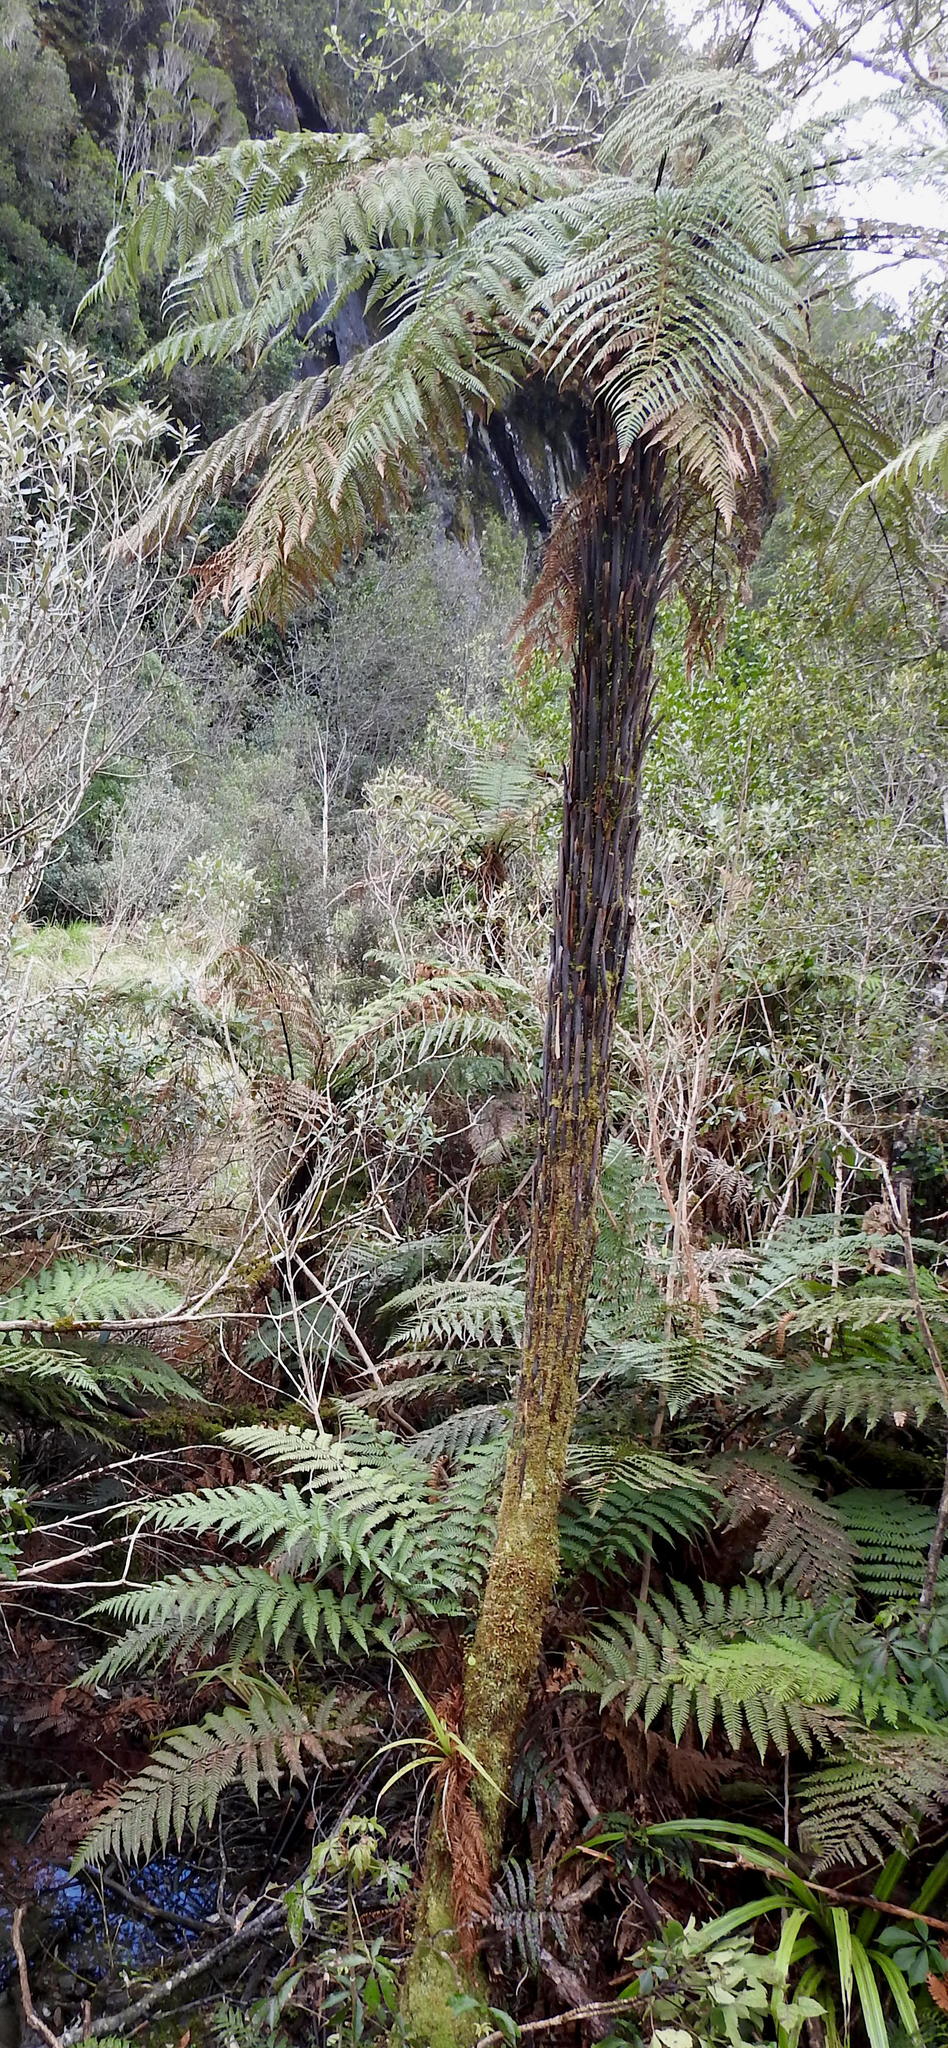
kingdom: Plantae
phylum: Tracheophyta
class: Polypodiopsida
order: Cyatheales
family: Dicksoniaceae
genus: Dicksonia
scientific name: Dicksonia squarrosa
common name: Hard treefern
